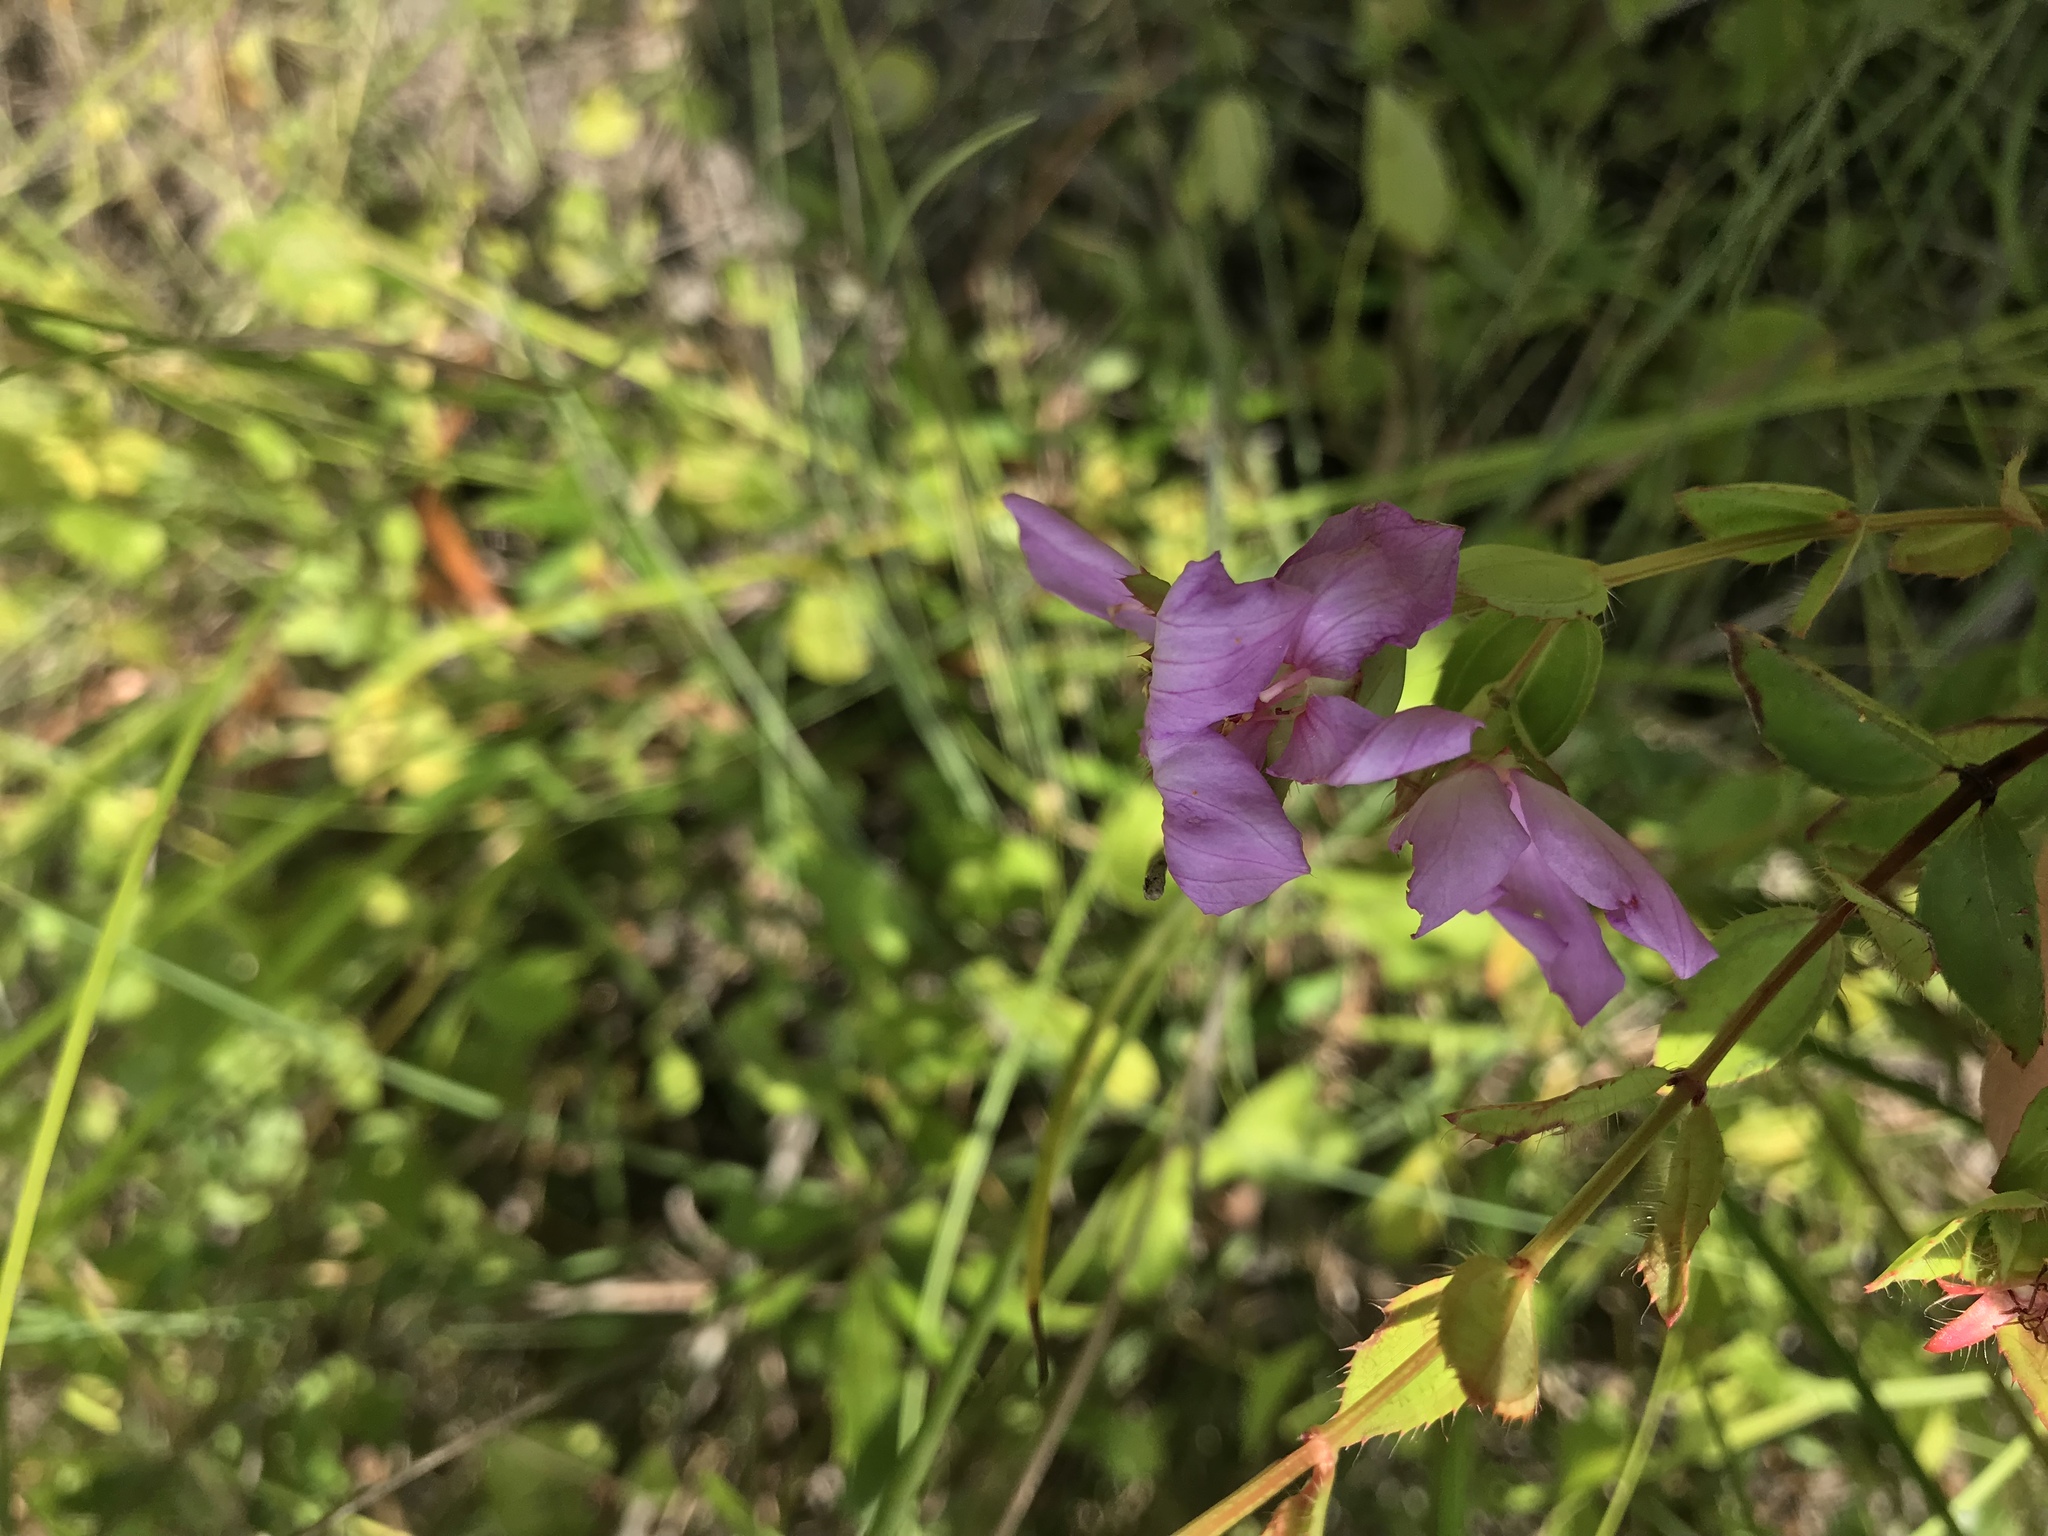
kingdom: Plantae
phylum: Tracheophyta
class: Magnoliopsida
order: Myrtales
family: Melastomataceae
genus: Rhexia
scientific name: Rhexia petiolata
